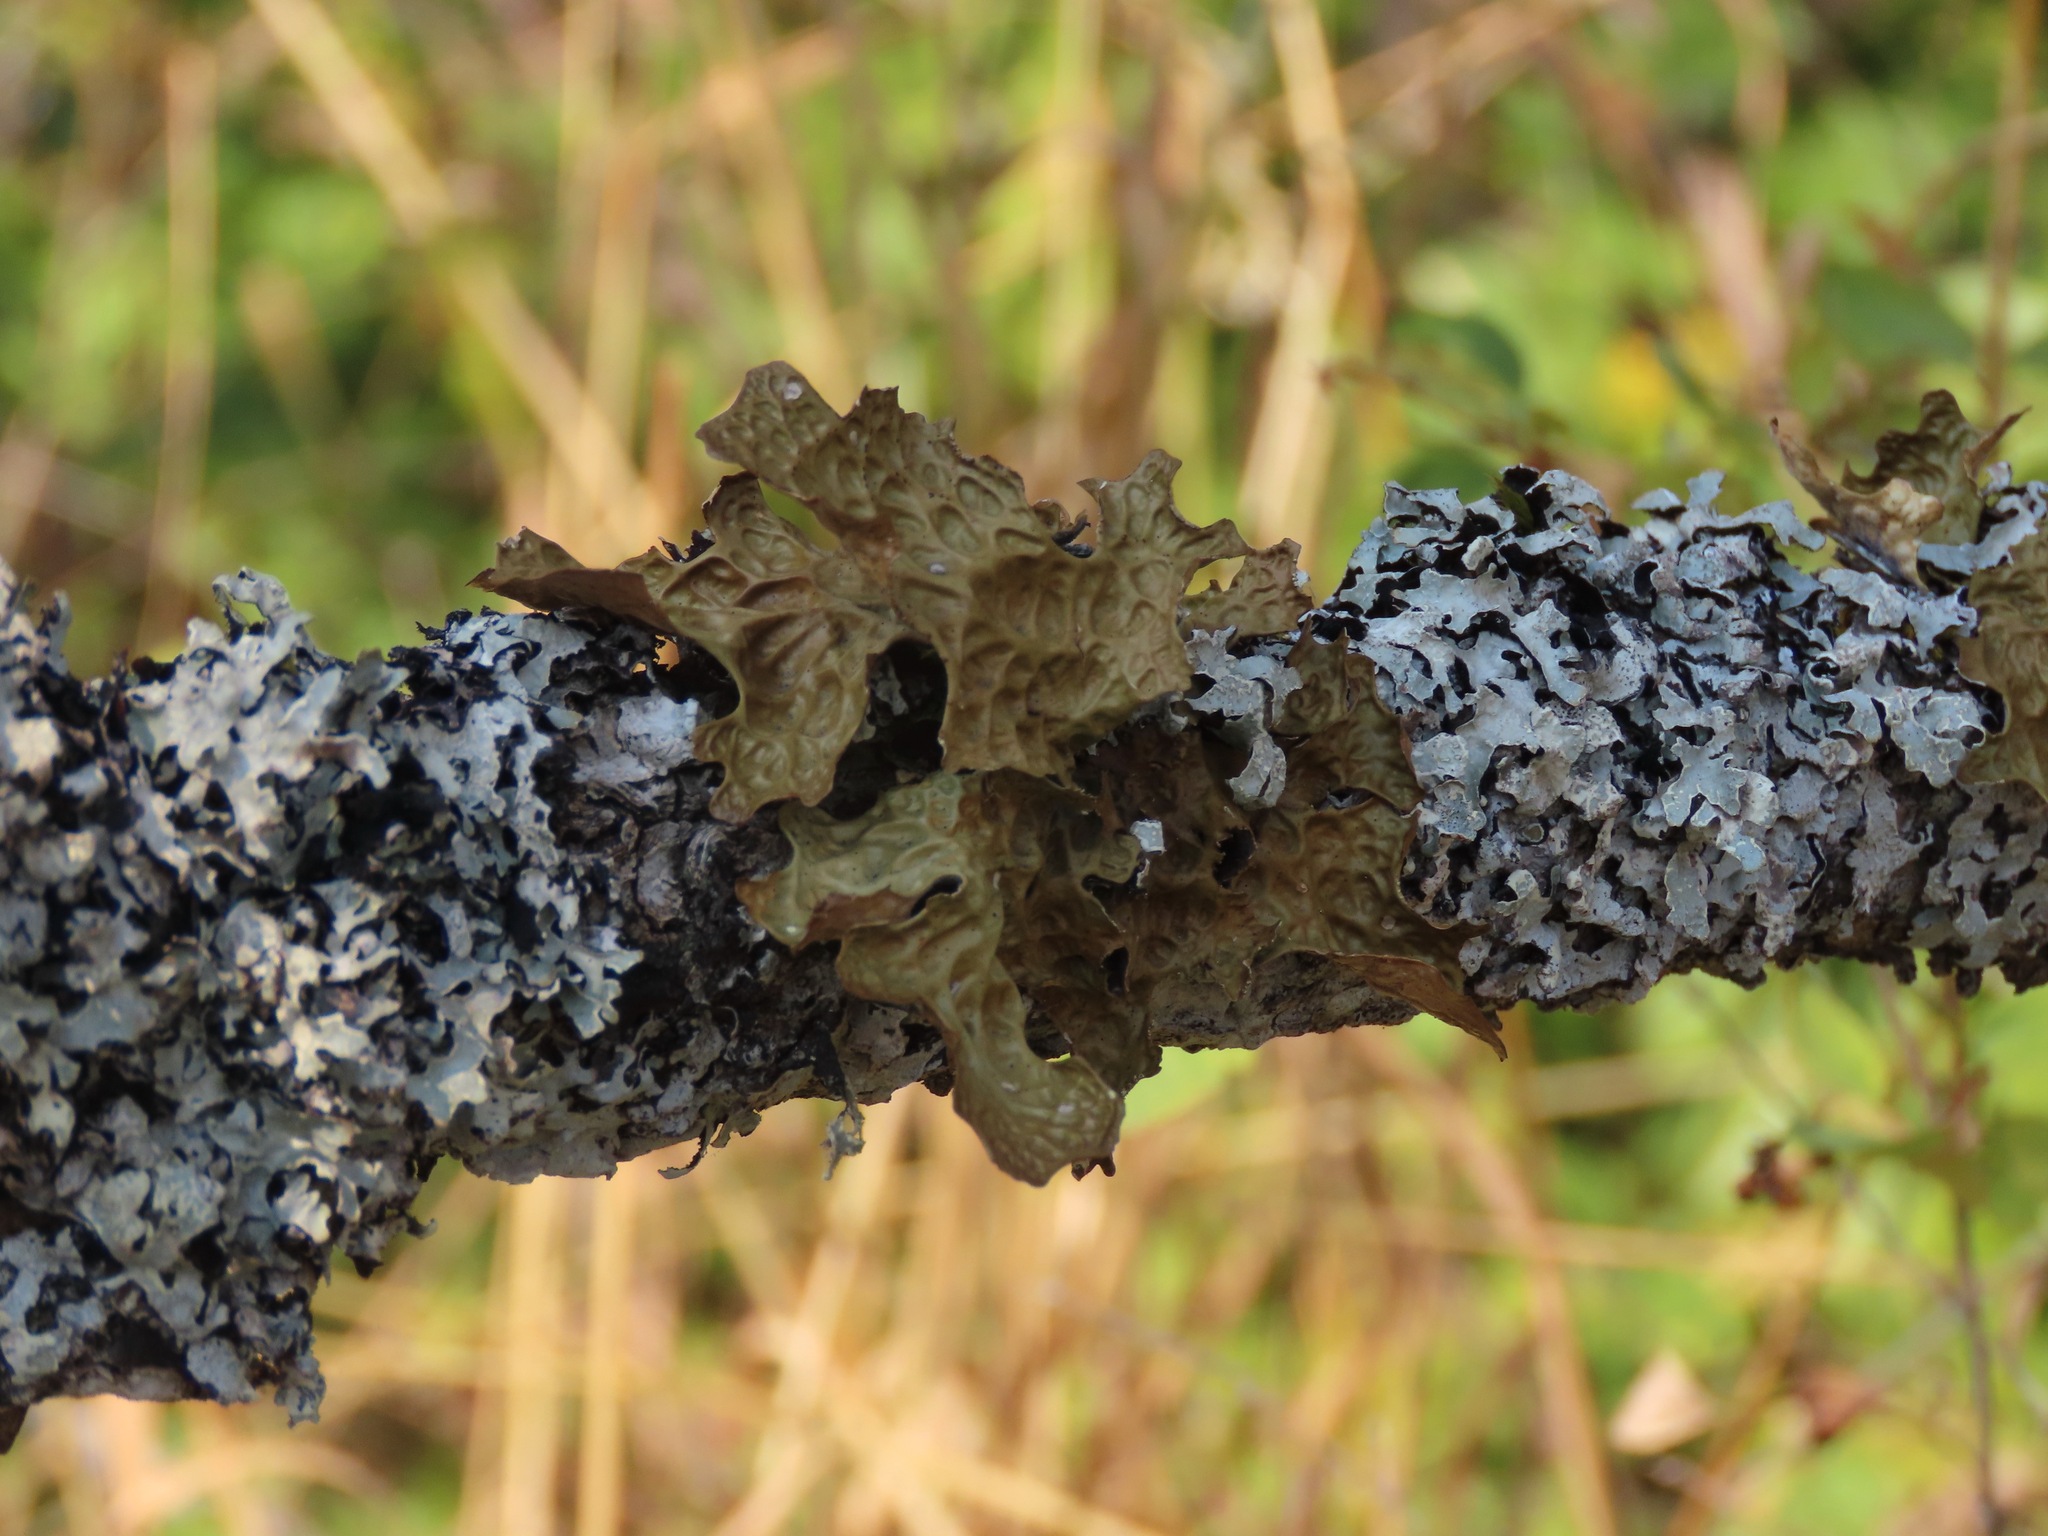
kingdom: Fungi
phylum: Ascomycota
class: Lecanoromycetes
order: Peltigerales
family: Lobariaceae
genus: Lobaria
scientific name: Lobaria pulmonaria
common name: Lungwort
